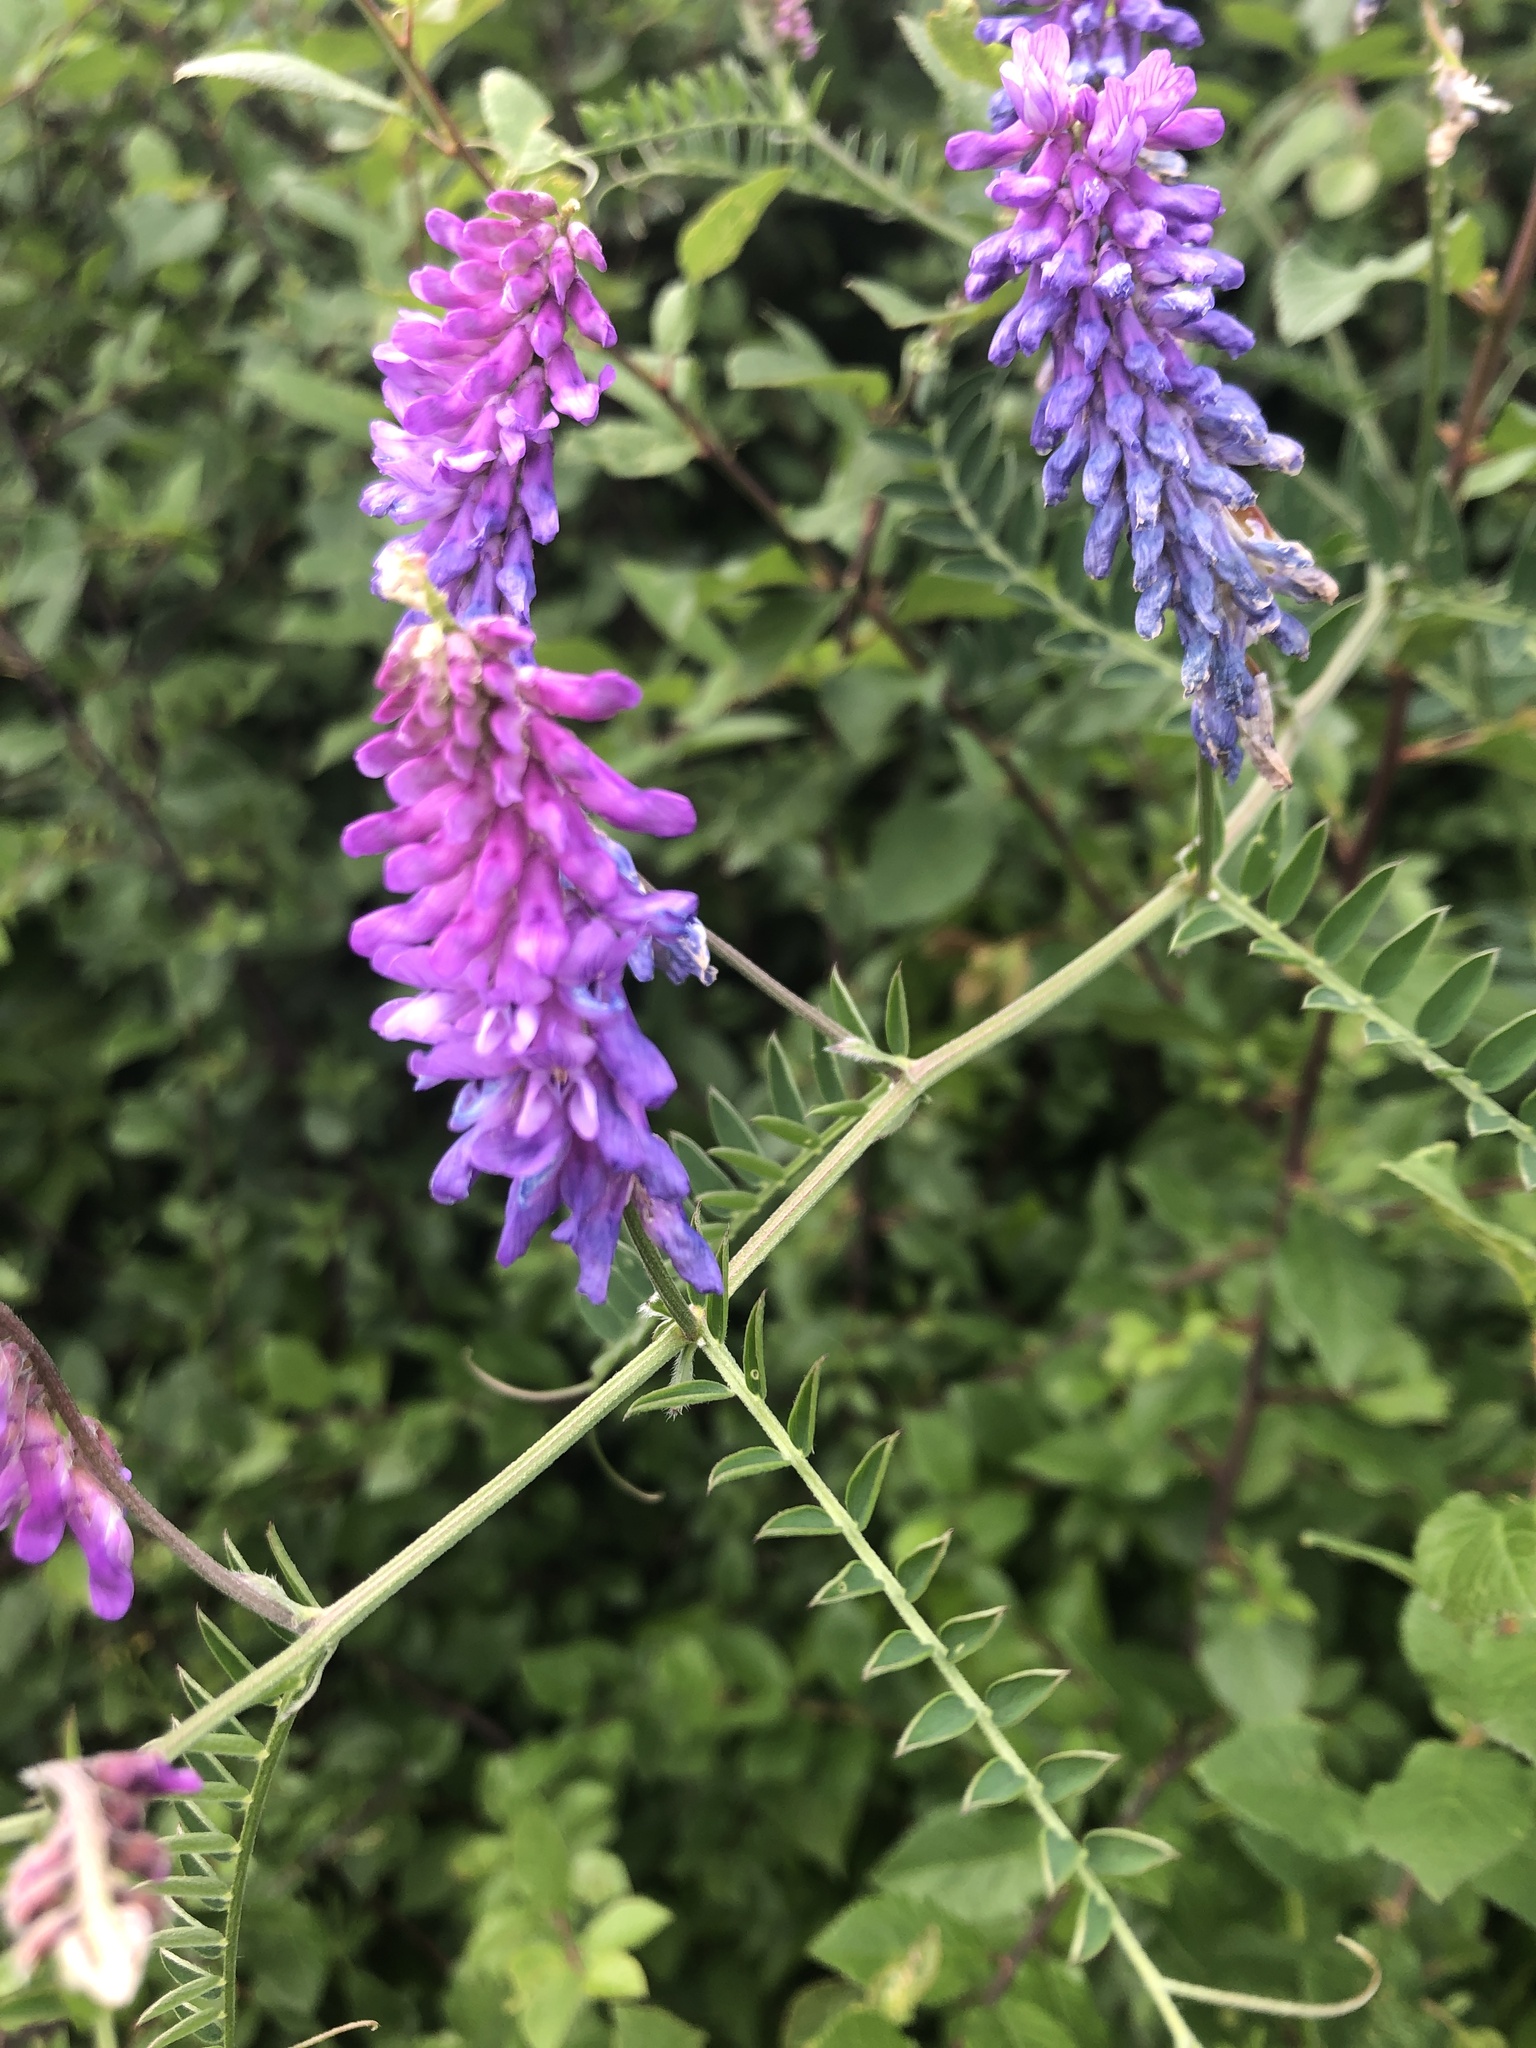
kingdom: Plantae
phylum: Tracheophyta
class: Magnoliopsida
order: Fabales
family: Fabaceae
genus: Vicia
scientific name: Vicia cracca
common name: Bird vetch
